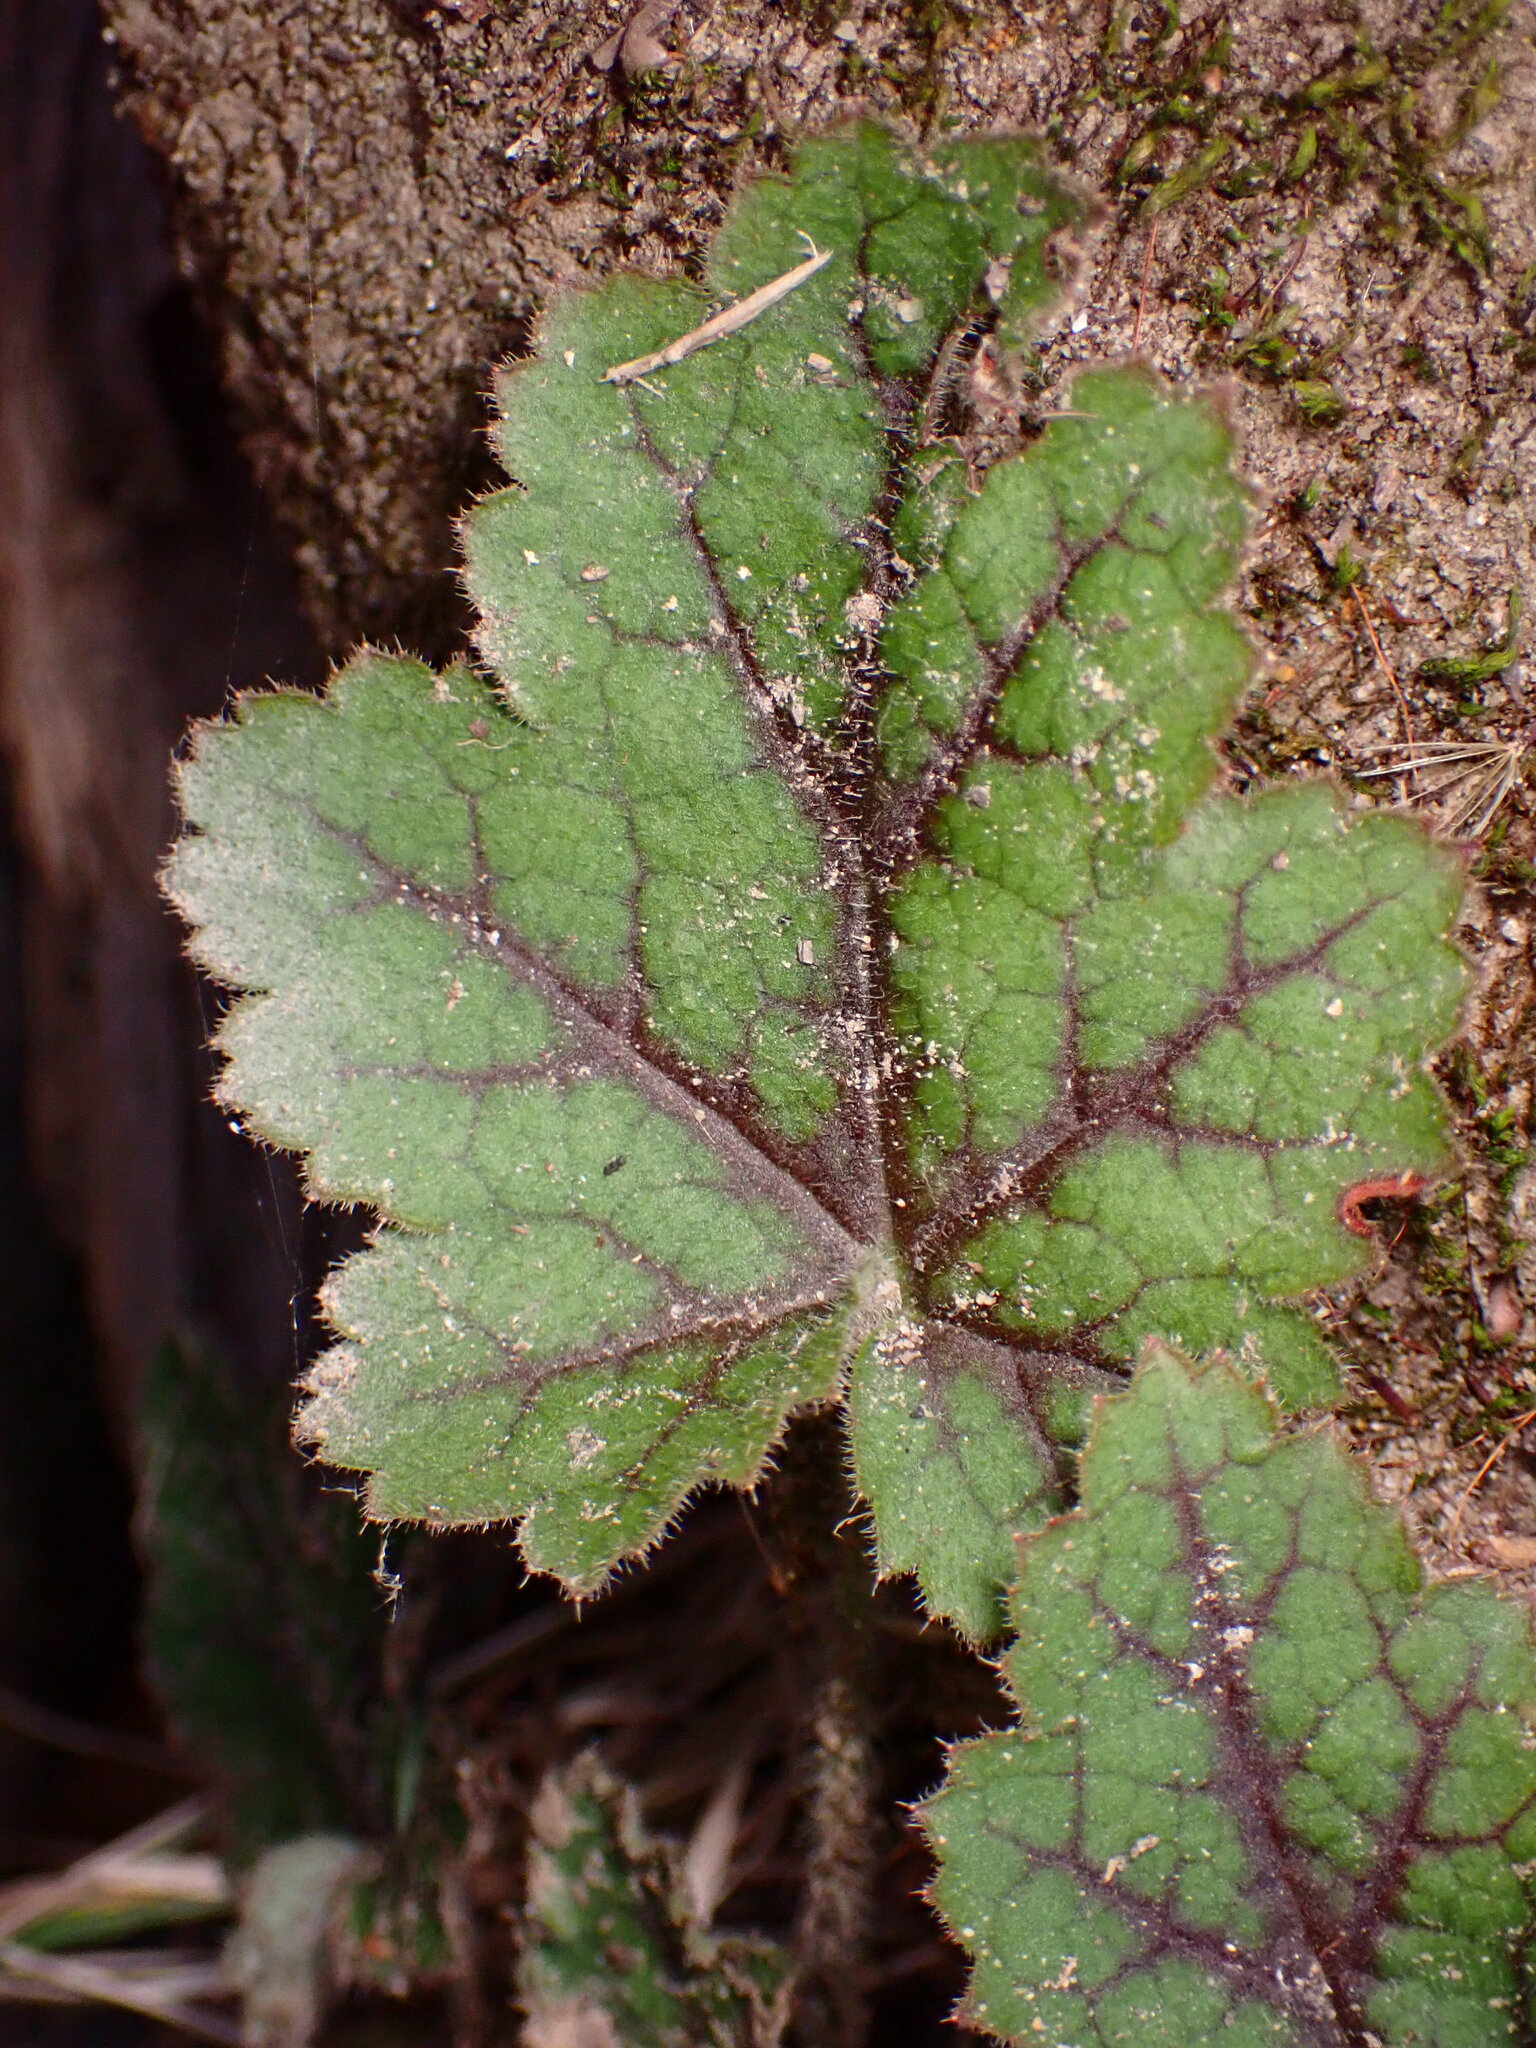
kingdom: Plantae
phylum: Tracheophyta
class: Magnoliopsida
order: Saxifragales
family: Saxifragaceae
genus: Heuchera
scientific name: Heuchera micrantha
